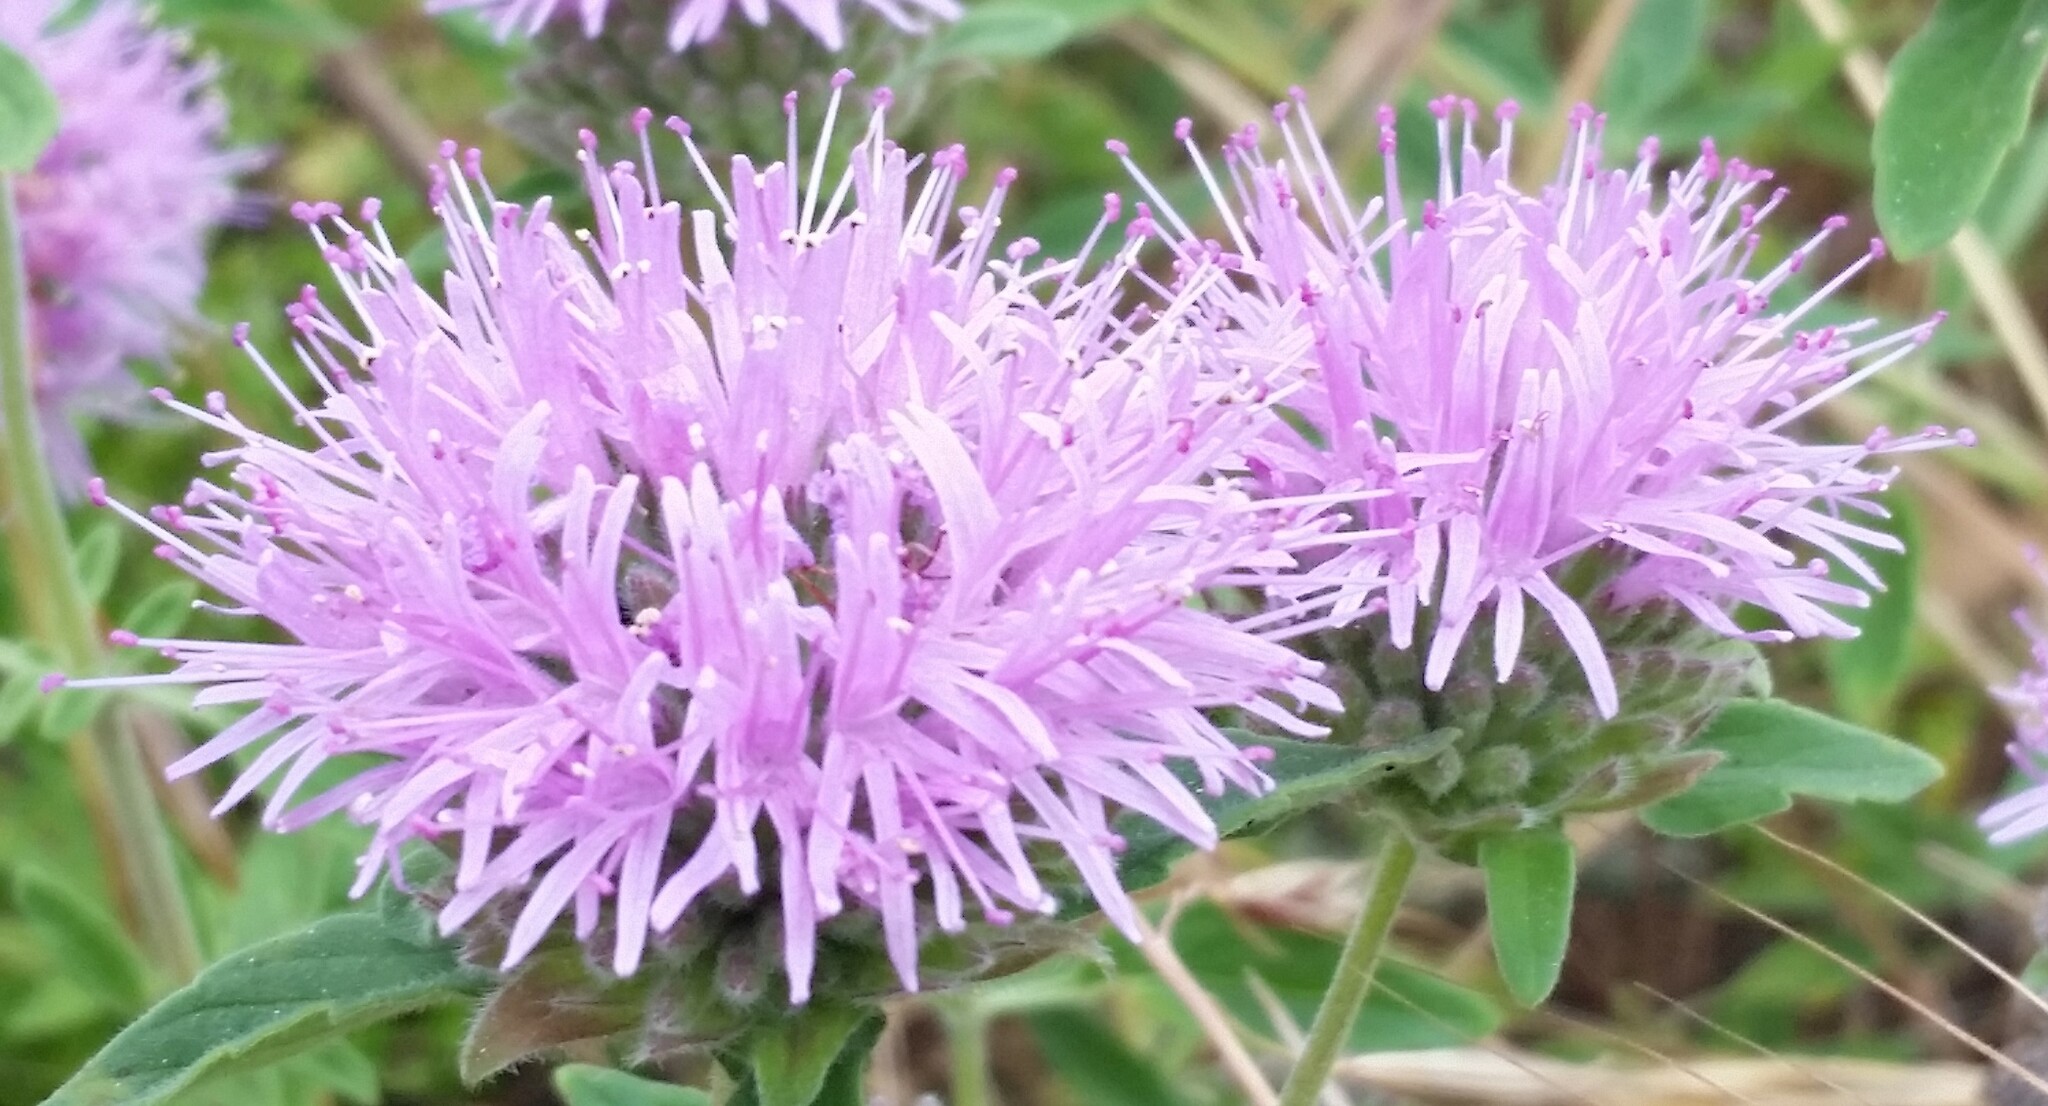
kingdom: Plantae
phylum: Tracheophyta
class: Magnoliopsida
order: Lamiales
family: Lamiaceae
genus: Monardella
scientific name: Monardella odoratissima
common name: Pacific monardella
